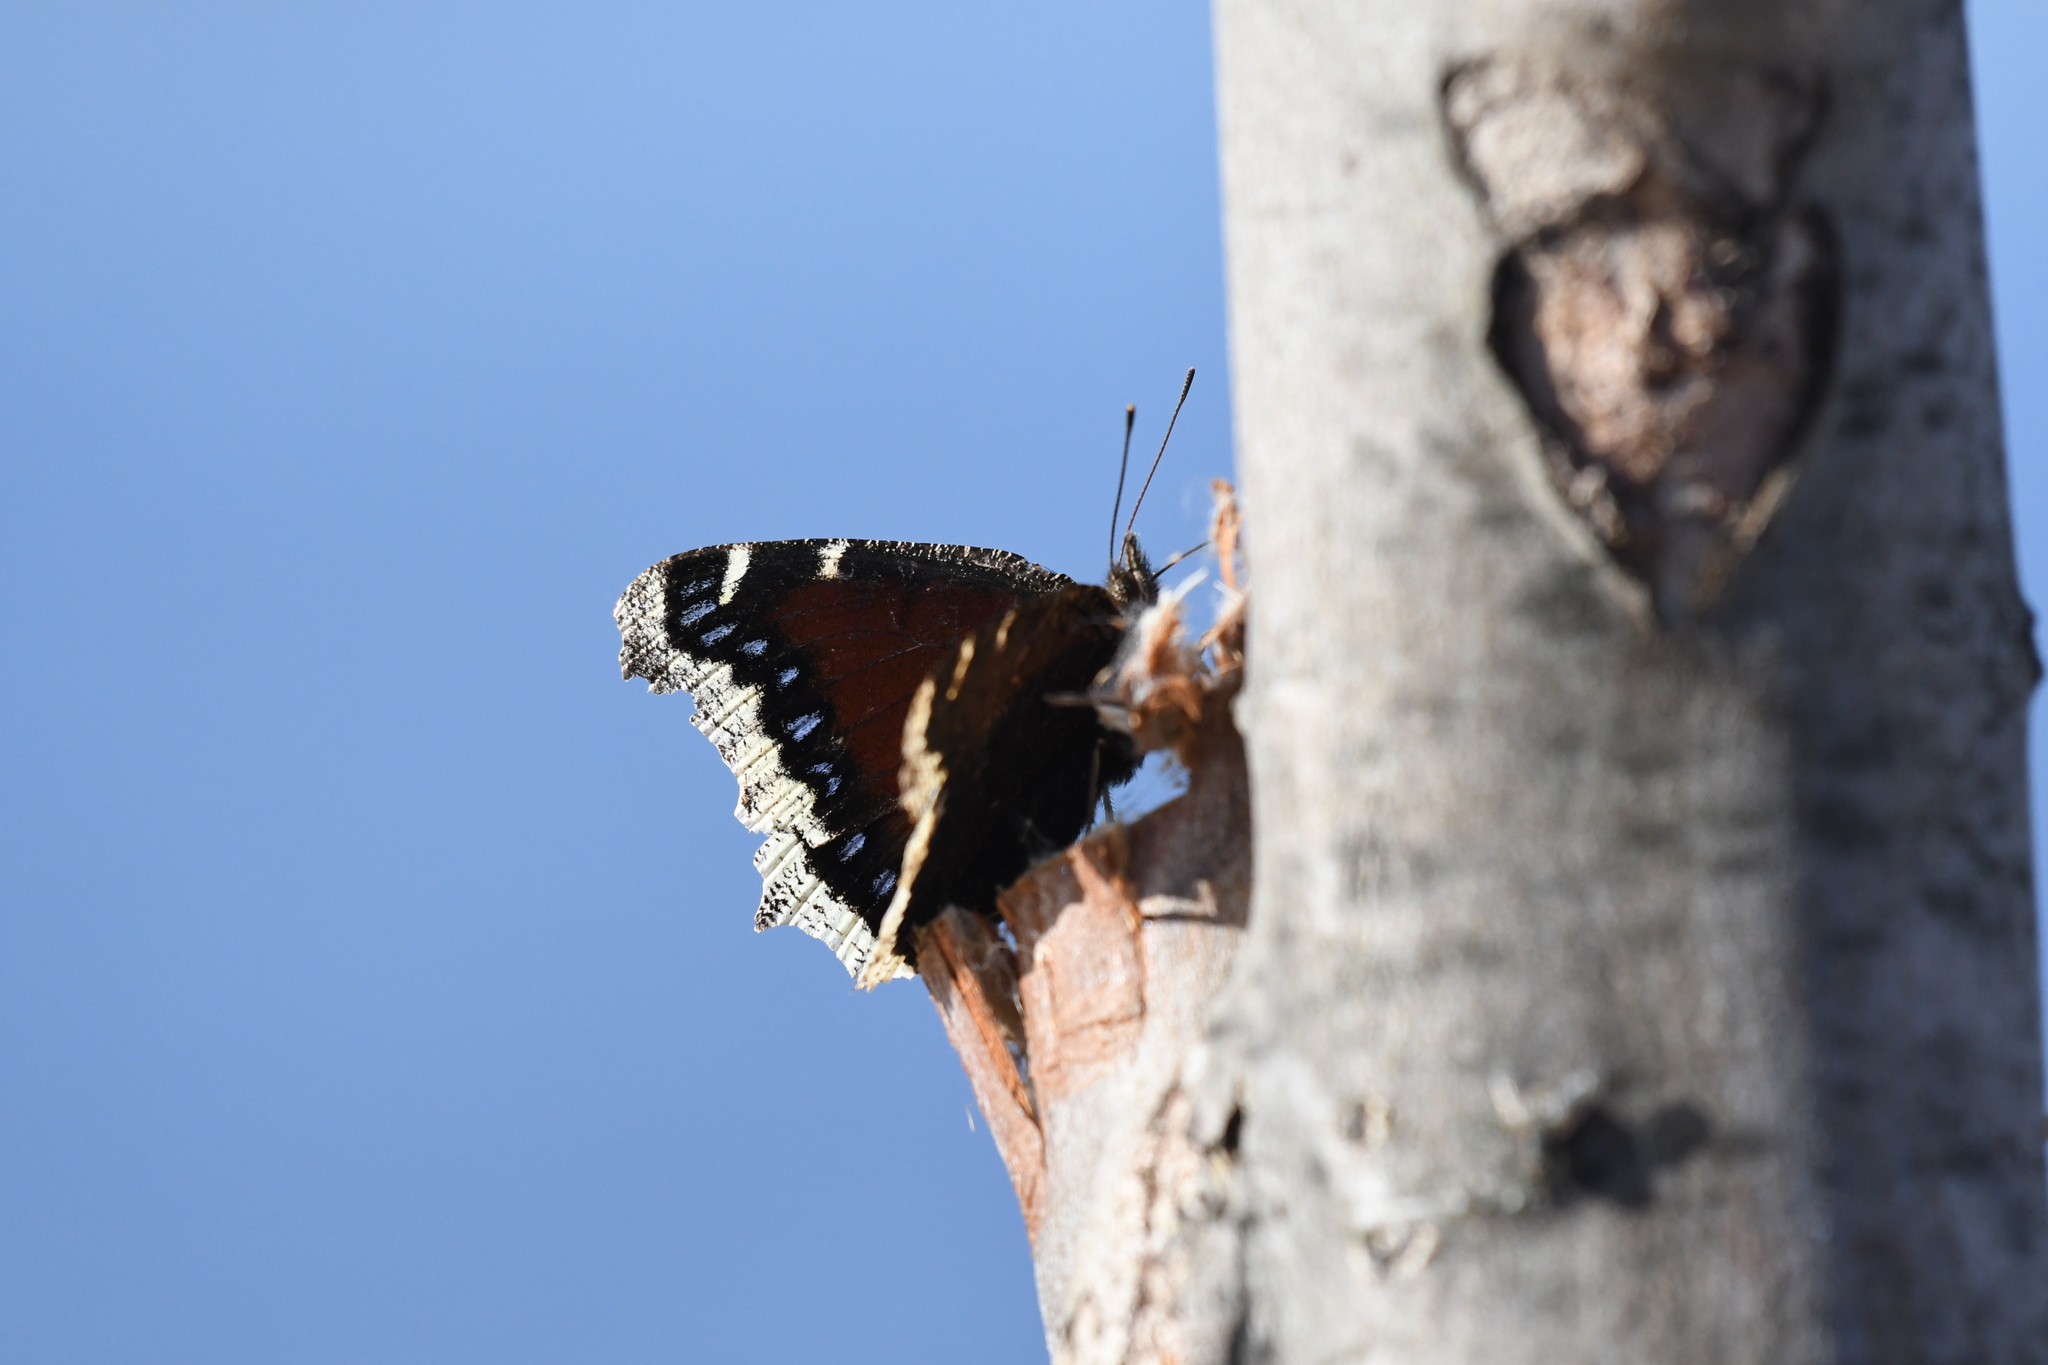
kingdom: Animalia
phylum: Arthropoda
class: Insecta
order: Lepidoptera
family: Nymphalidae
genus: Nymphalis
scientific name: Nymphalis antiopa
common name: Camberwell beauty
